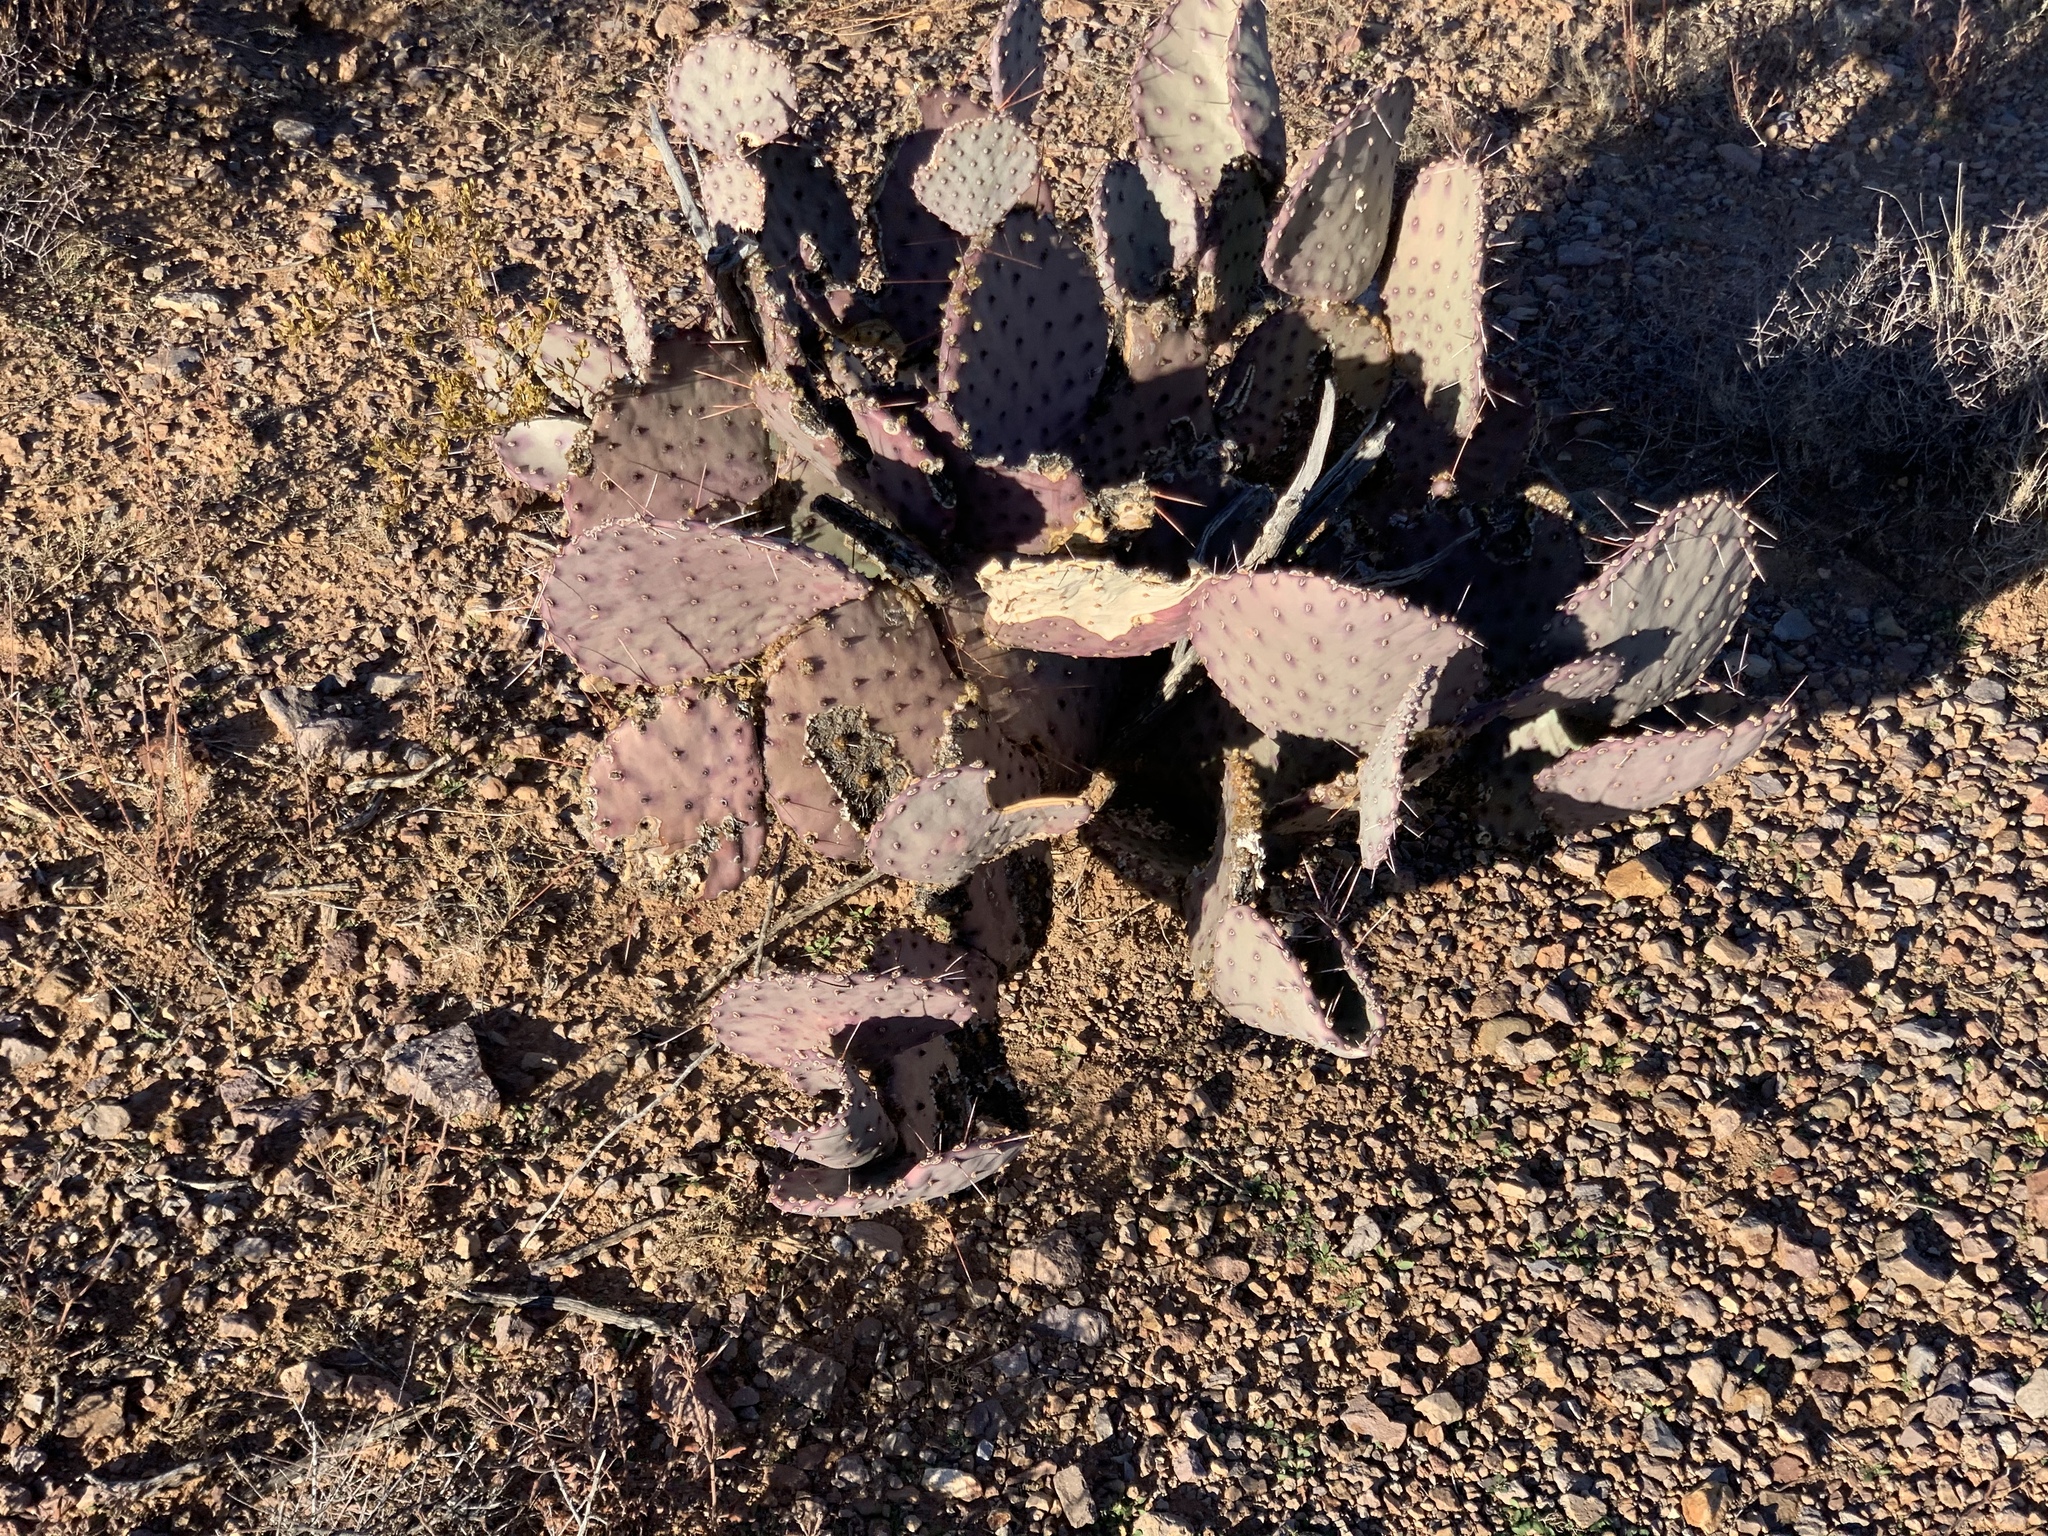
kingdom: Plantae
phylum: Tracheophyta
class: Magnoliopsida
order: Caryophyllales
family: Cactaceae
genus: Opuntia
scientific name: Opuntia macrocentra
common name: Purple prickly-pear
